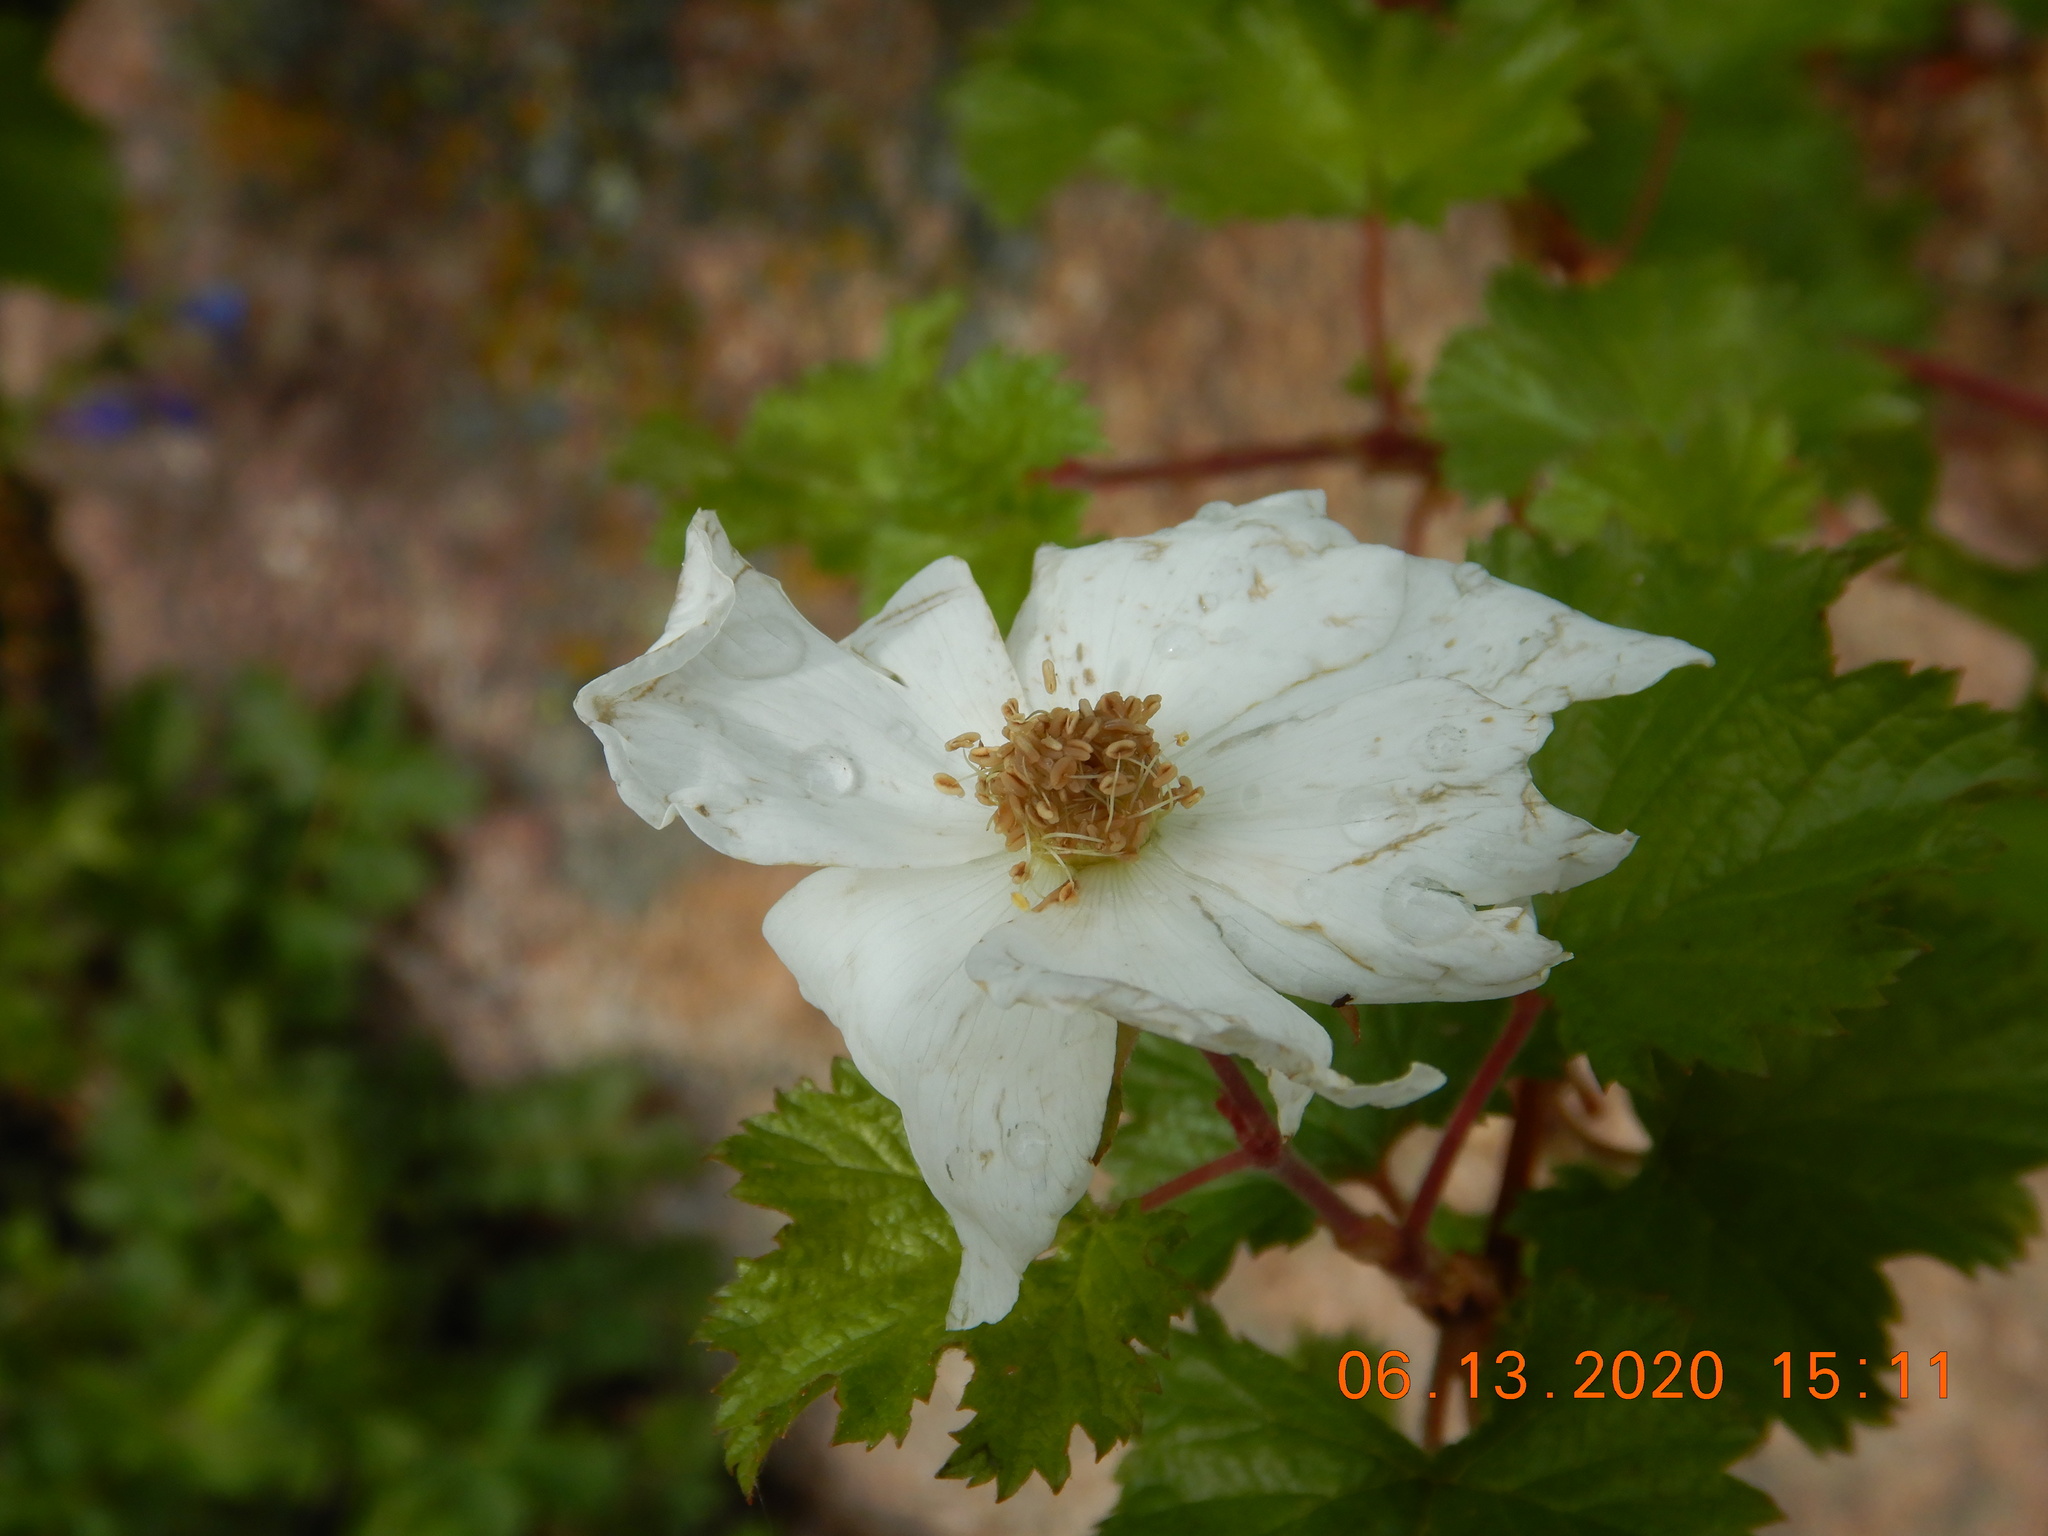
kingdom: Plantae
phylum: Tracheophyta
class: Magnoliopsida
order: Rosales
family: Rosaceae
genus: Rubus
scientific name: Rubus deliciosus
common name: Rocky mountain raspberry
